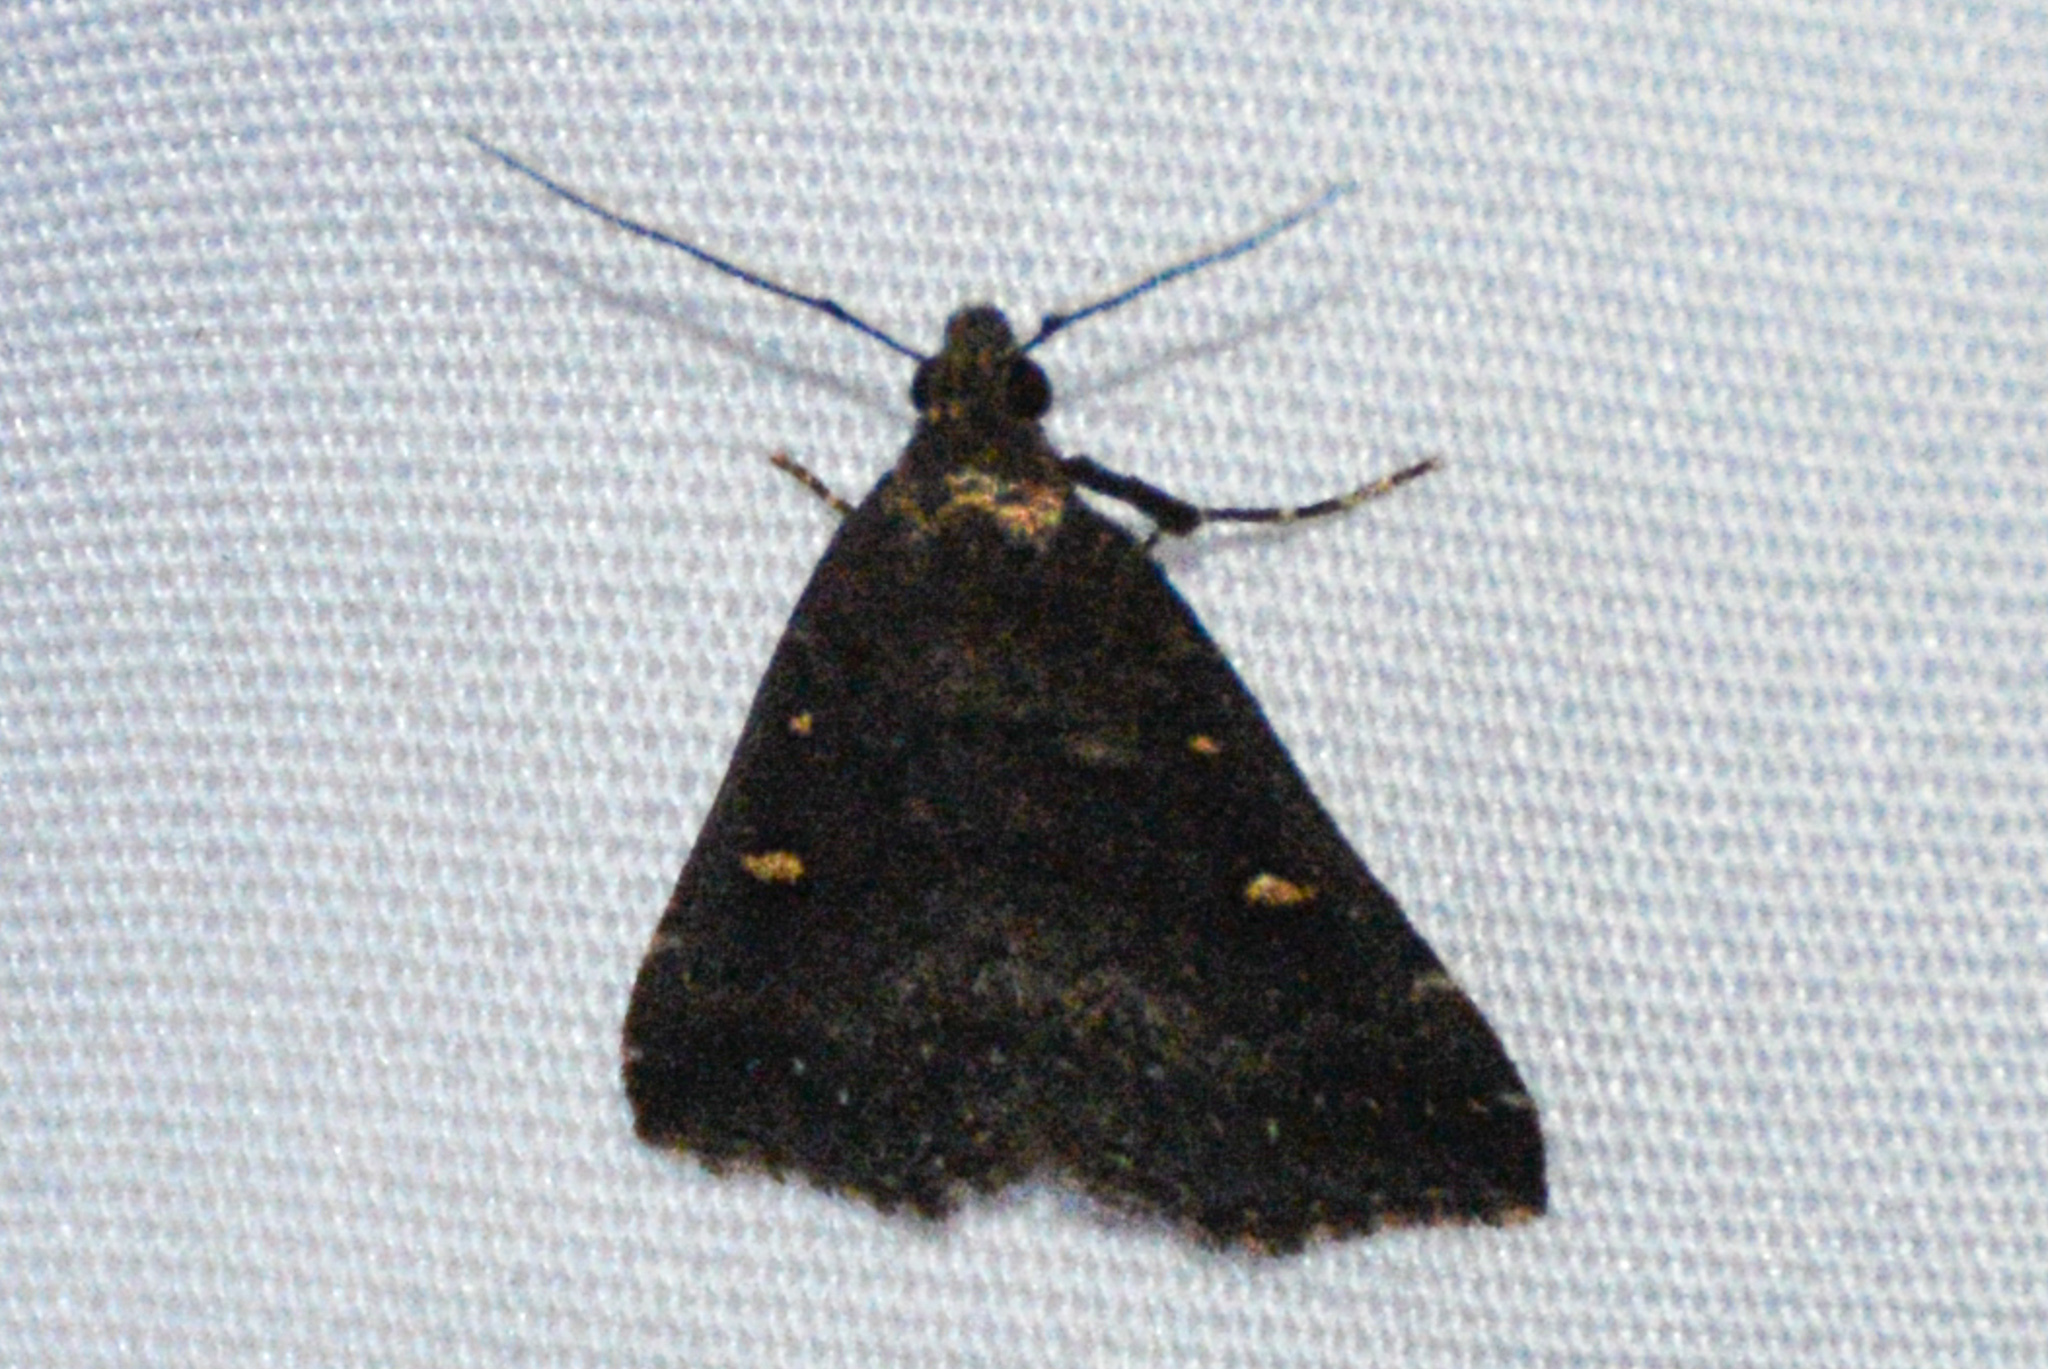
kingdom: Animalia
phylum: Arthropoda
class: Insecta
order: Lepidoptera
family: Erebidae
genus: Tetanolita
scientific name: Tetanolita mynesalis
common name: Smoky tetanolita moth
